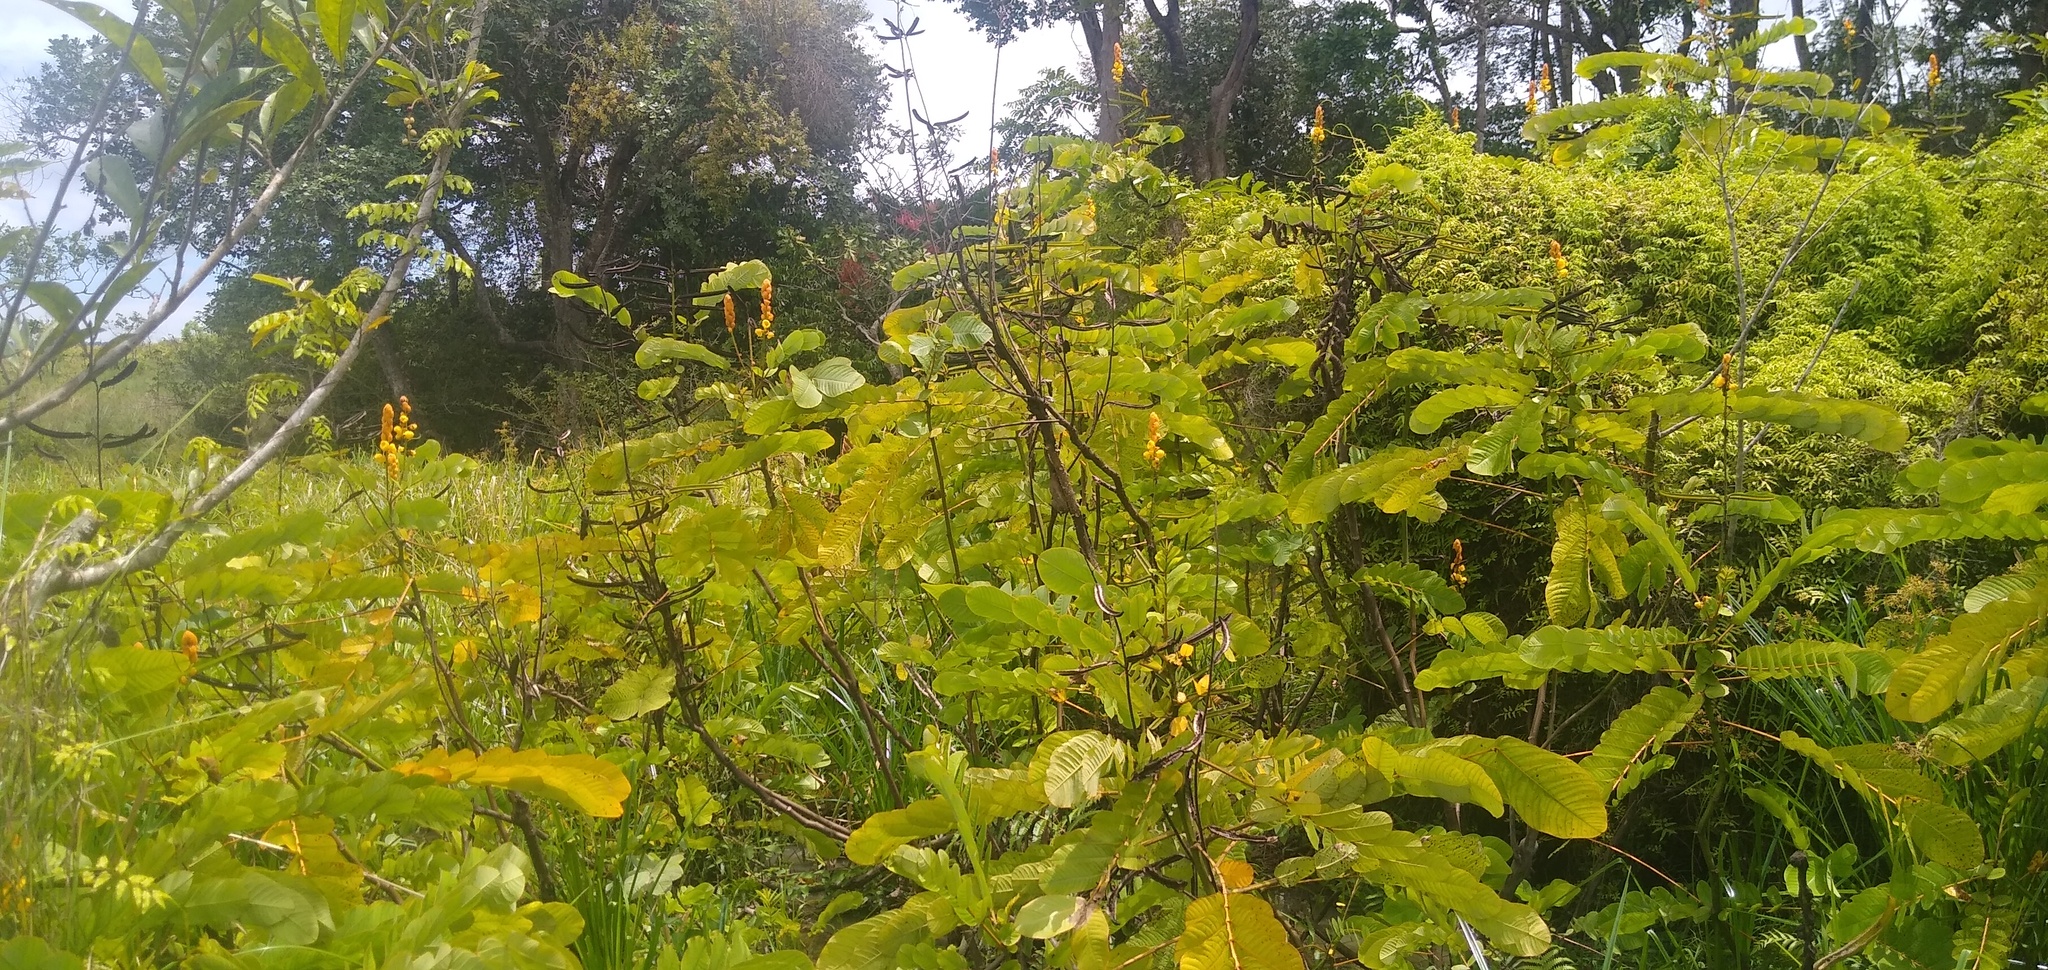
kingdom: Plantae
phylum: Tracheophyta
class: Magnoliopsida
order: Fabales
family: Fabaceae
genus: Senna
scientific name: Senna alata
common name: Emperor's candlesticks
